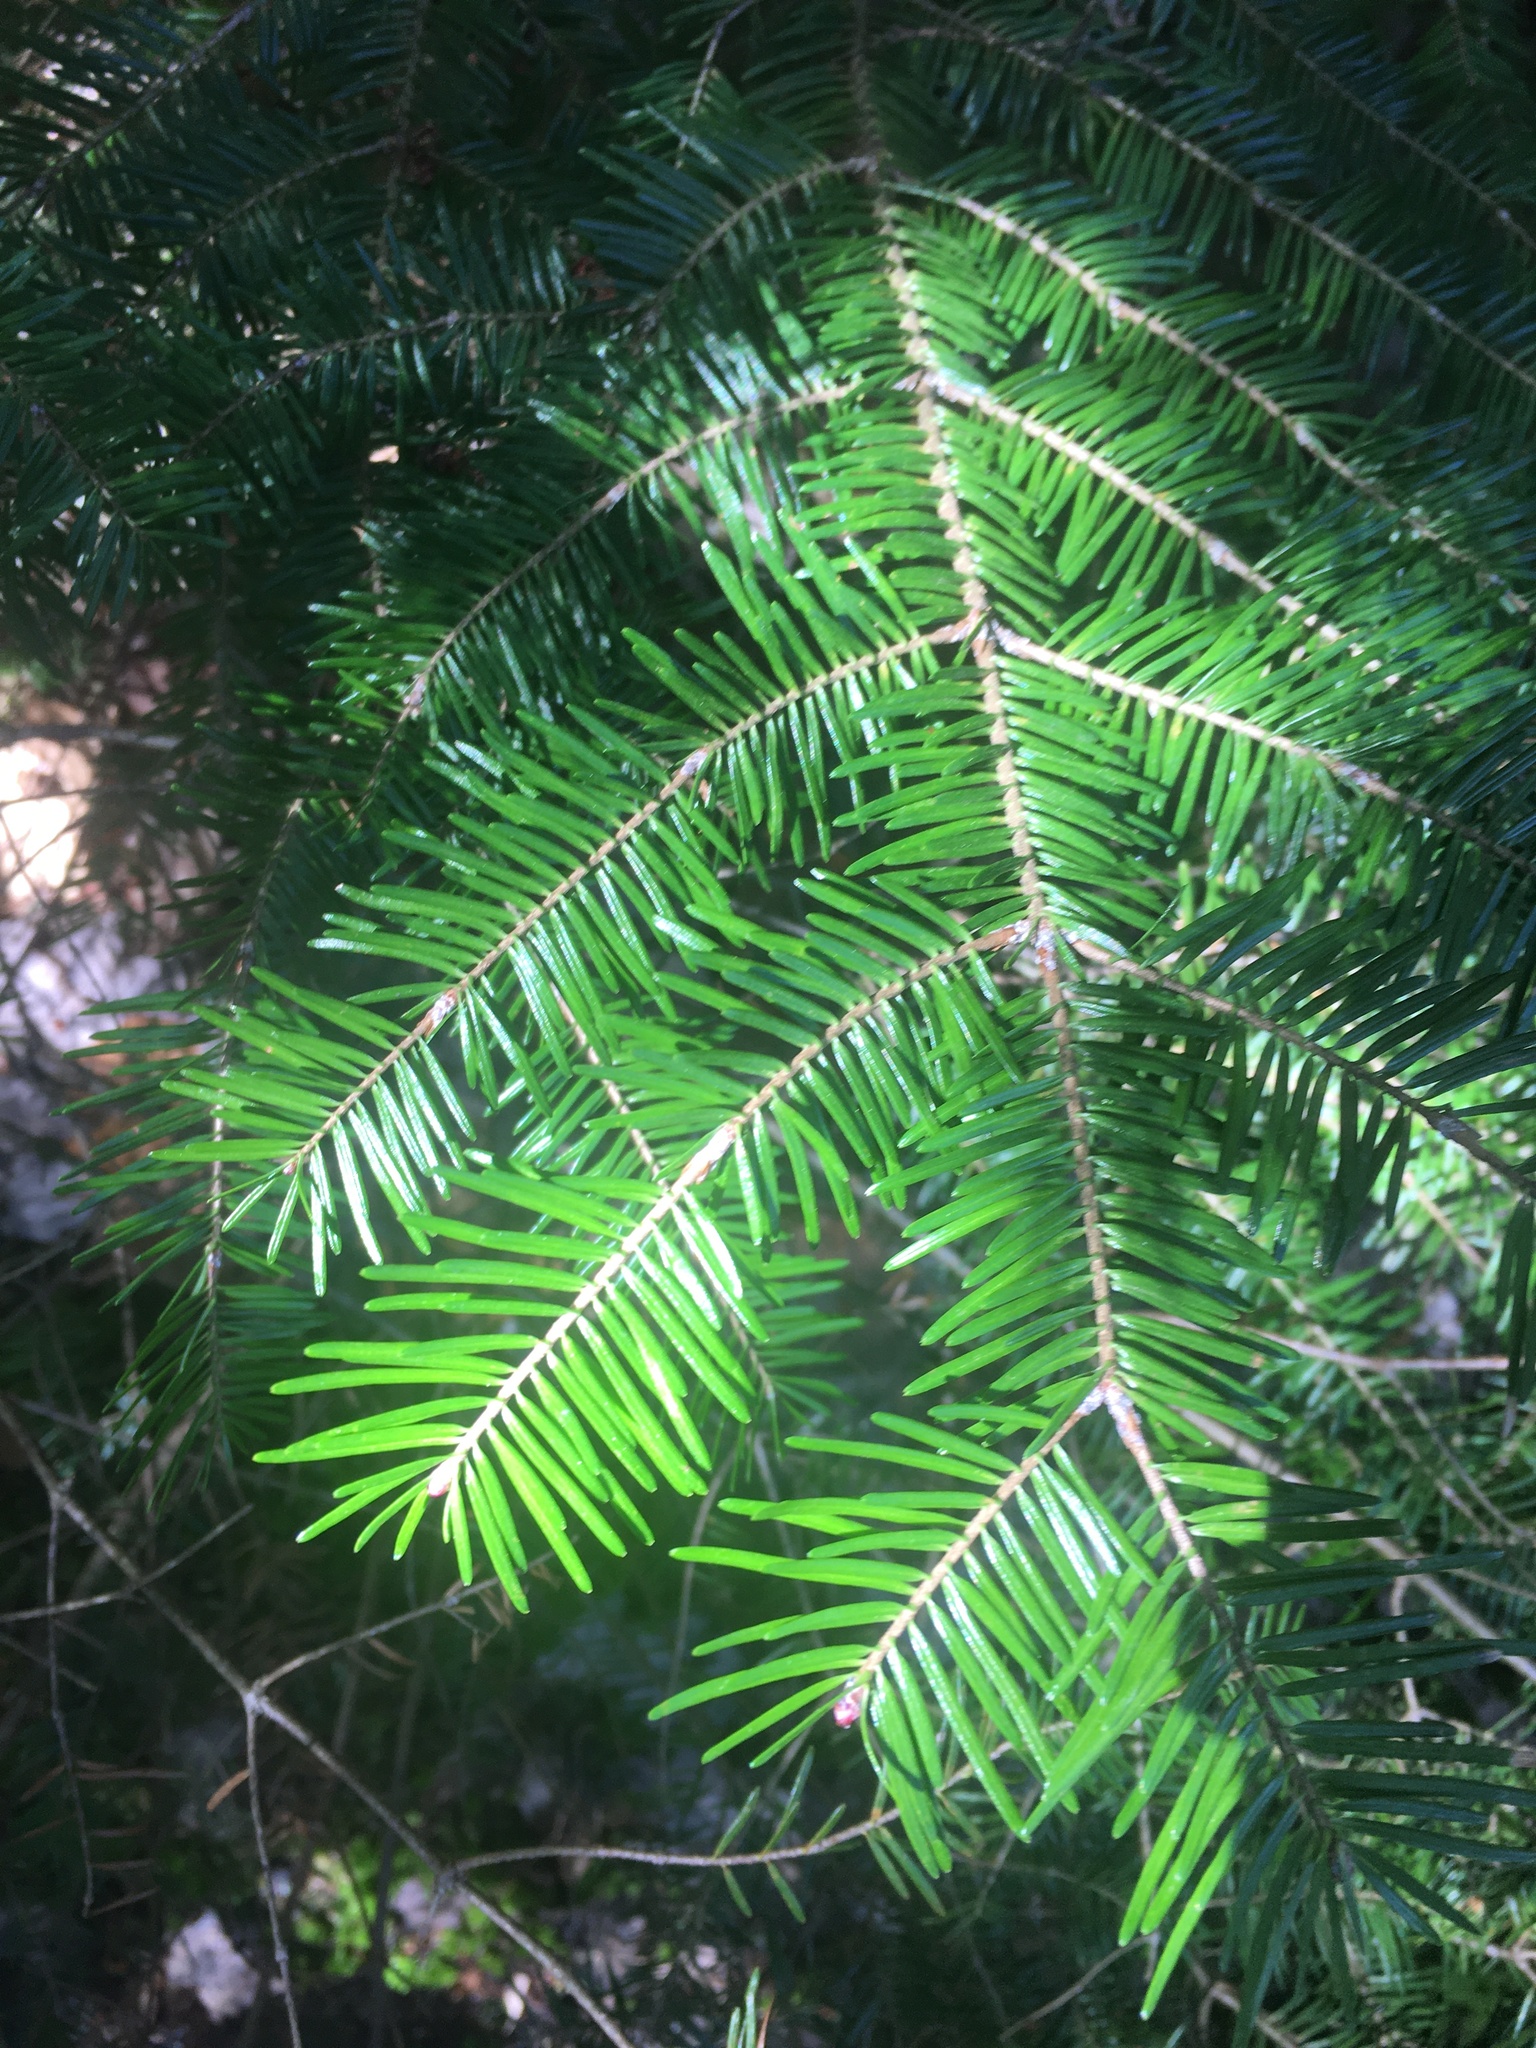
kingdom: Plantae
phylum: Tracheophyta
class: Pinopsida
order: Pinales
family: Pinaceae
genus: Abies
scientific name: Abies balsamea
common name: Balsam fir
